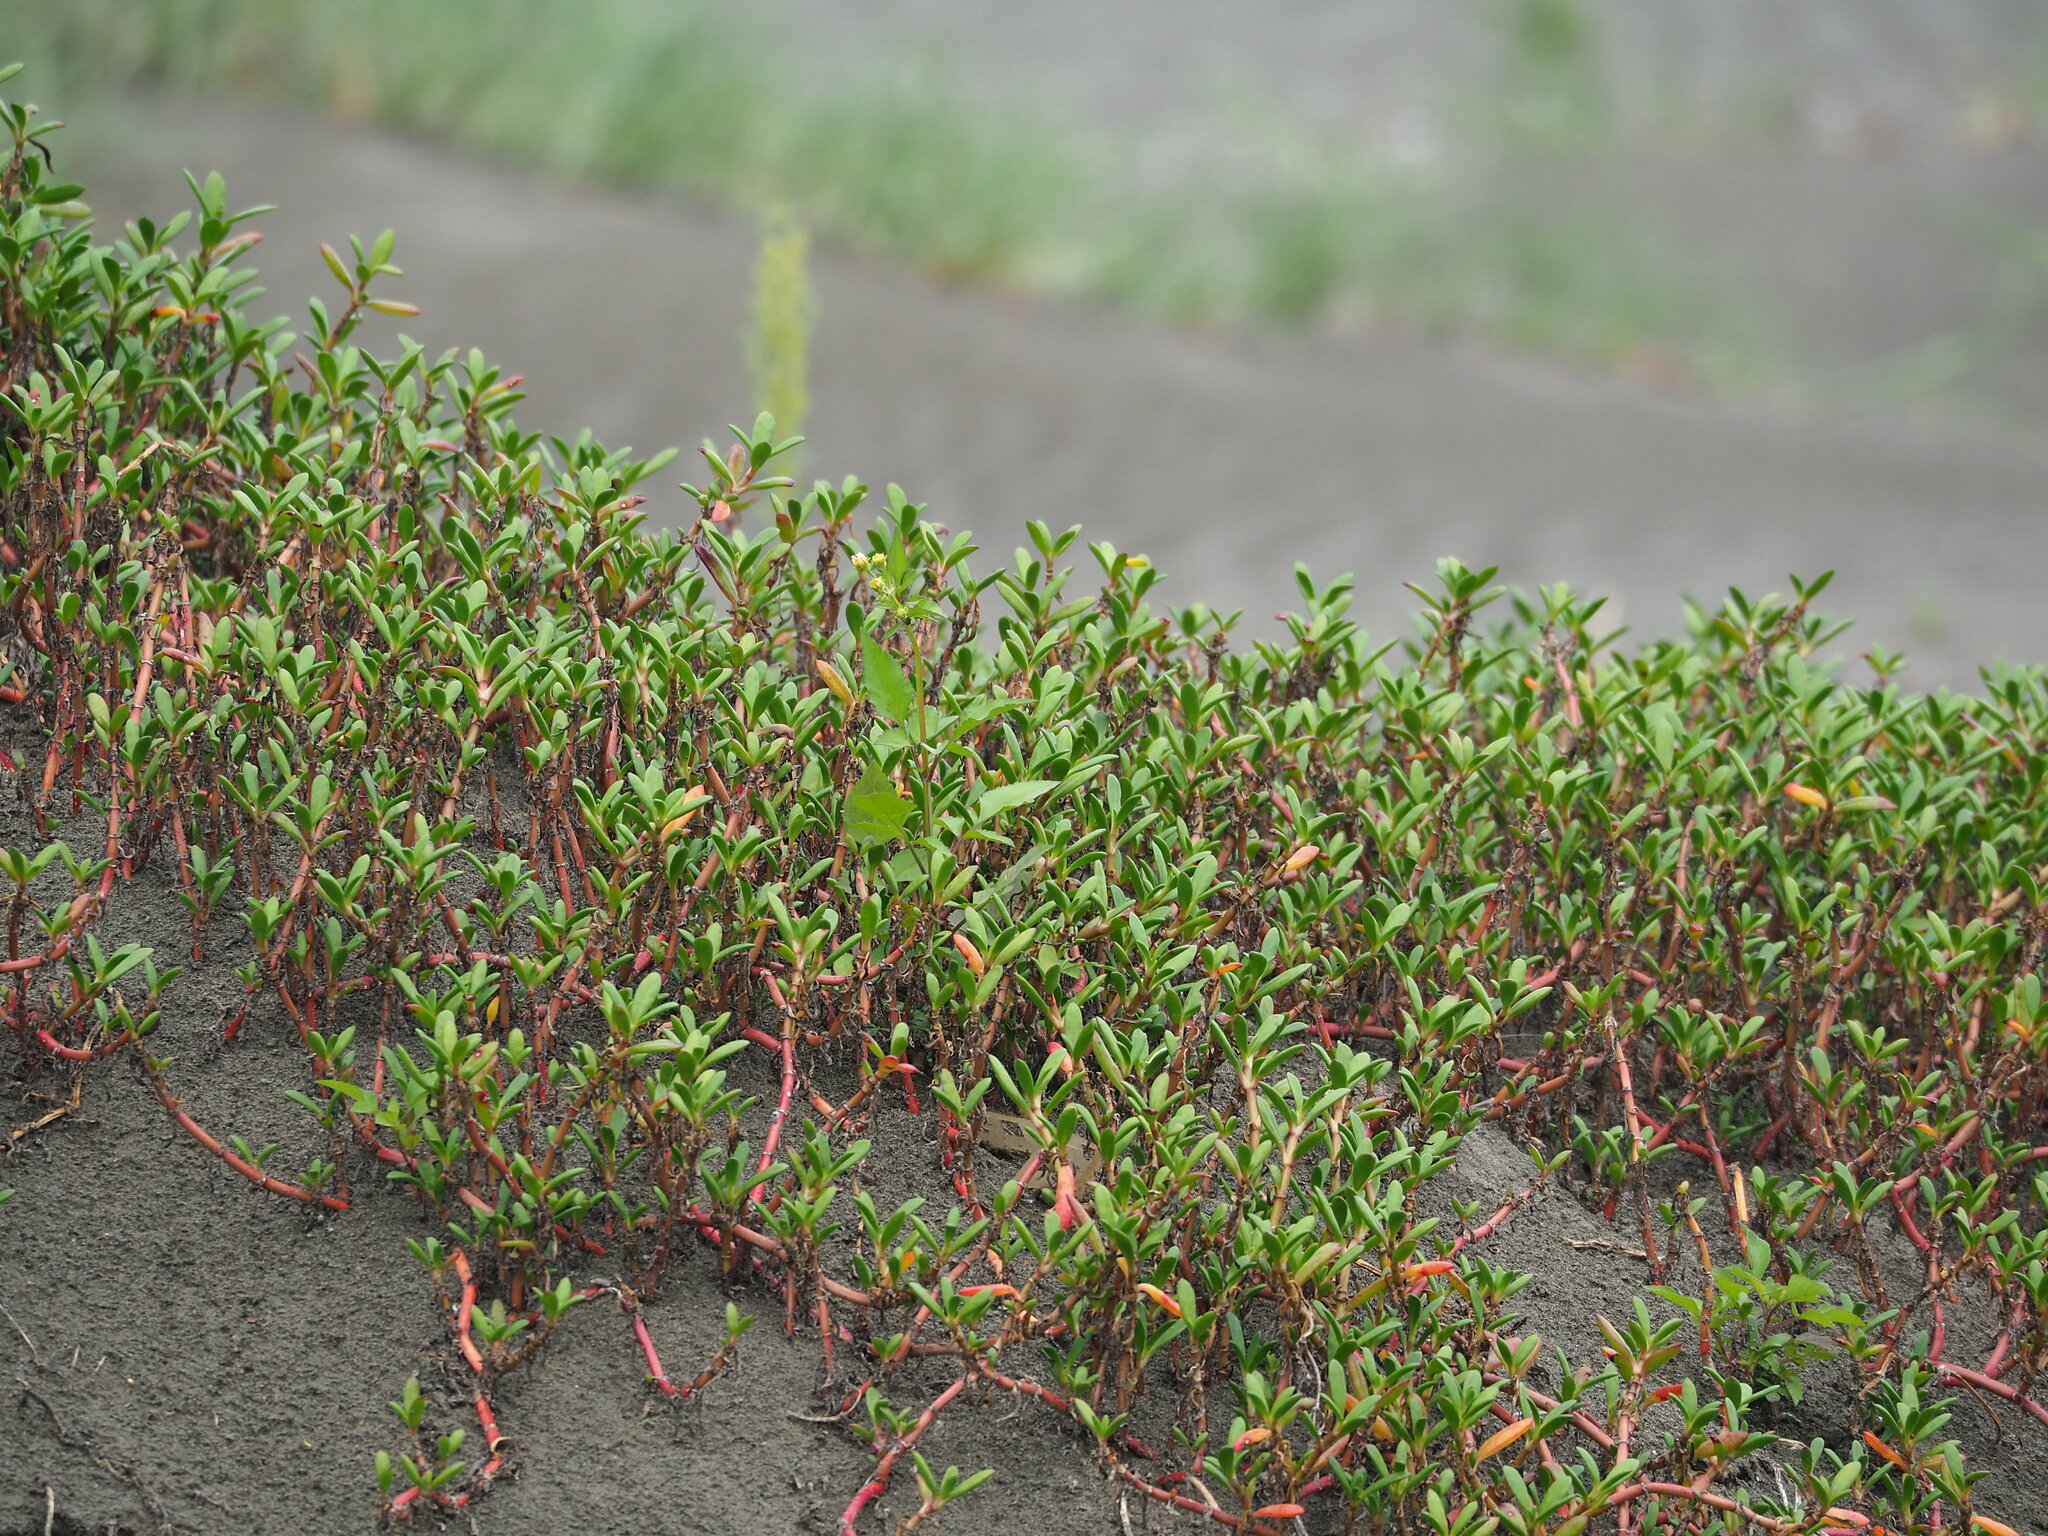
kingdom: Plantae
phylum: Tracheophyta
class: Magnoliopsida
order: Caryophyllales
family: Aizoaceae
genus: Sesuvium
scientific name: Sesuvium portulacastrum
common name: Sea-purslane
